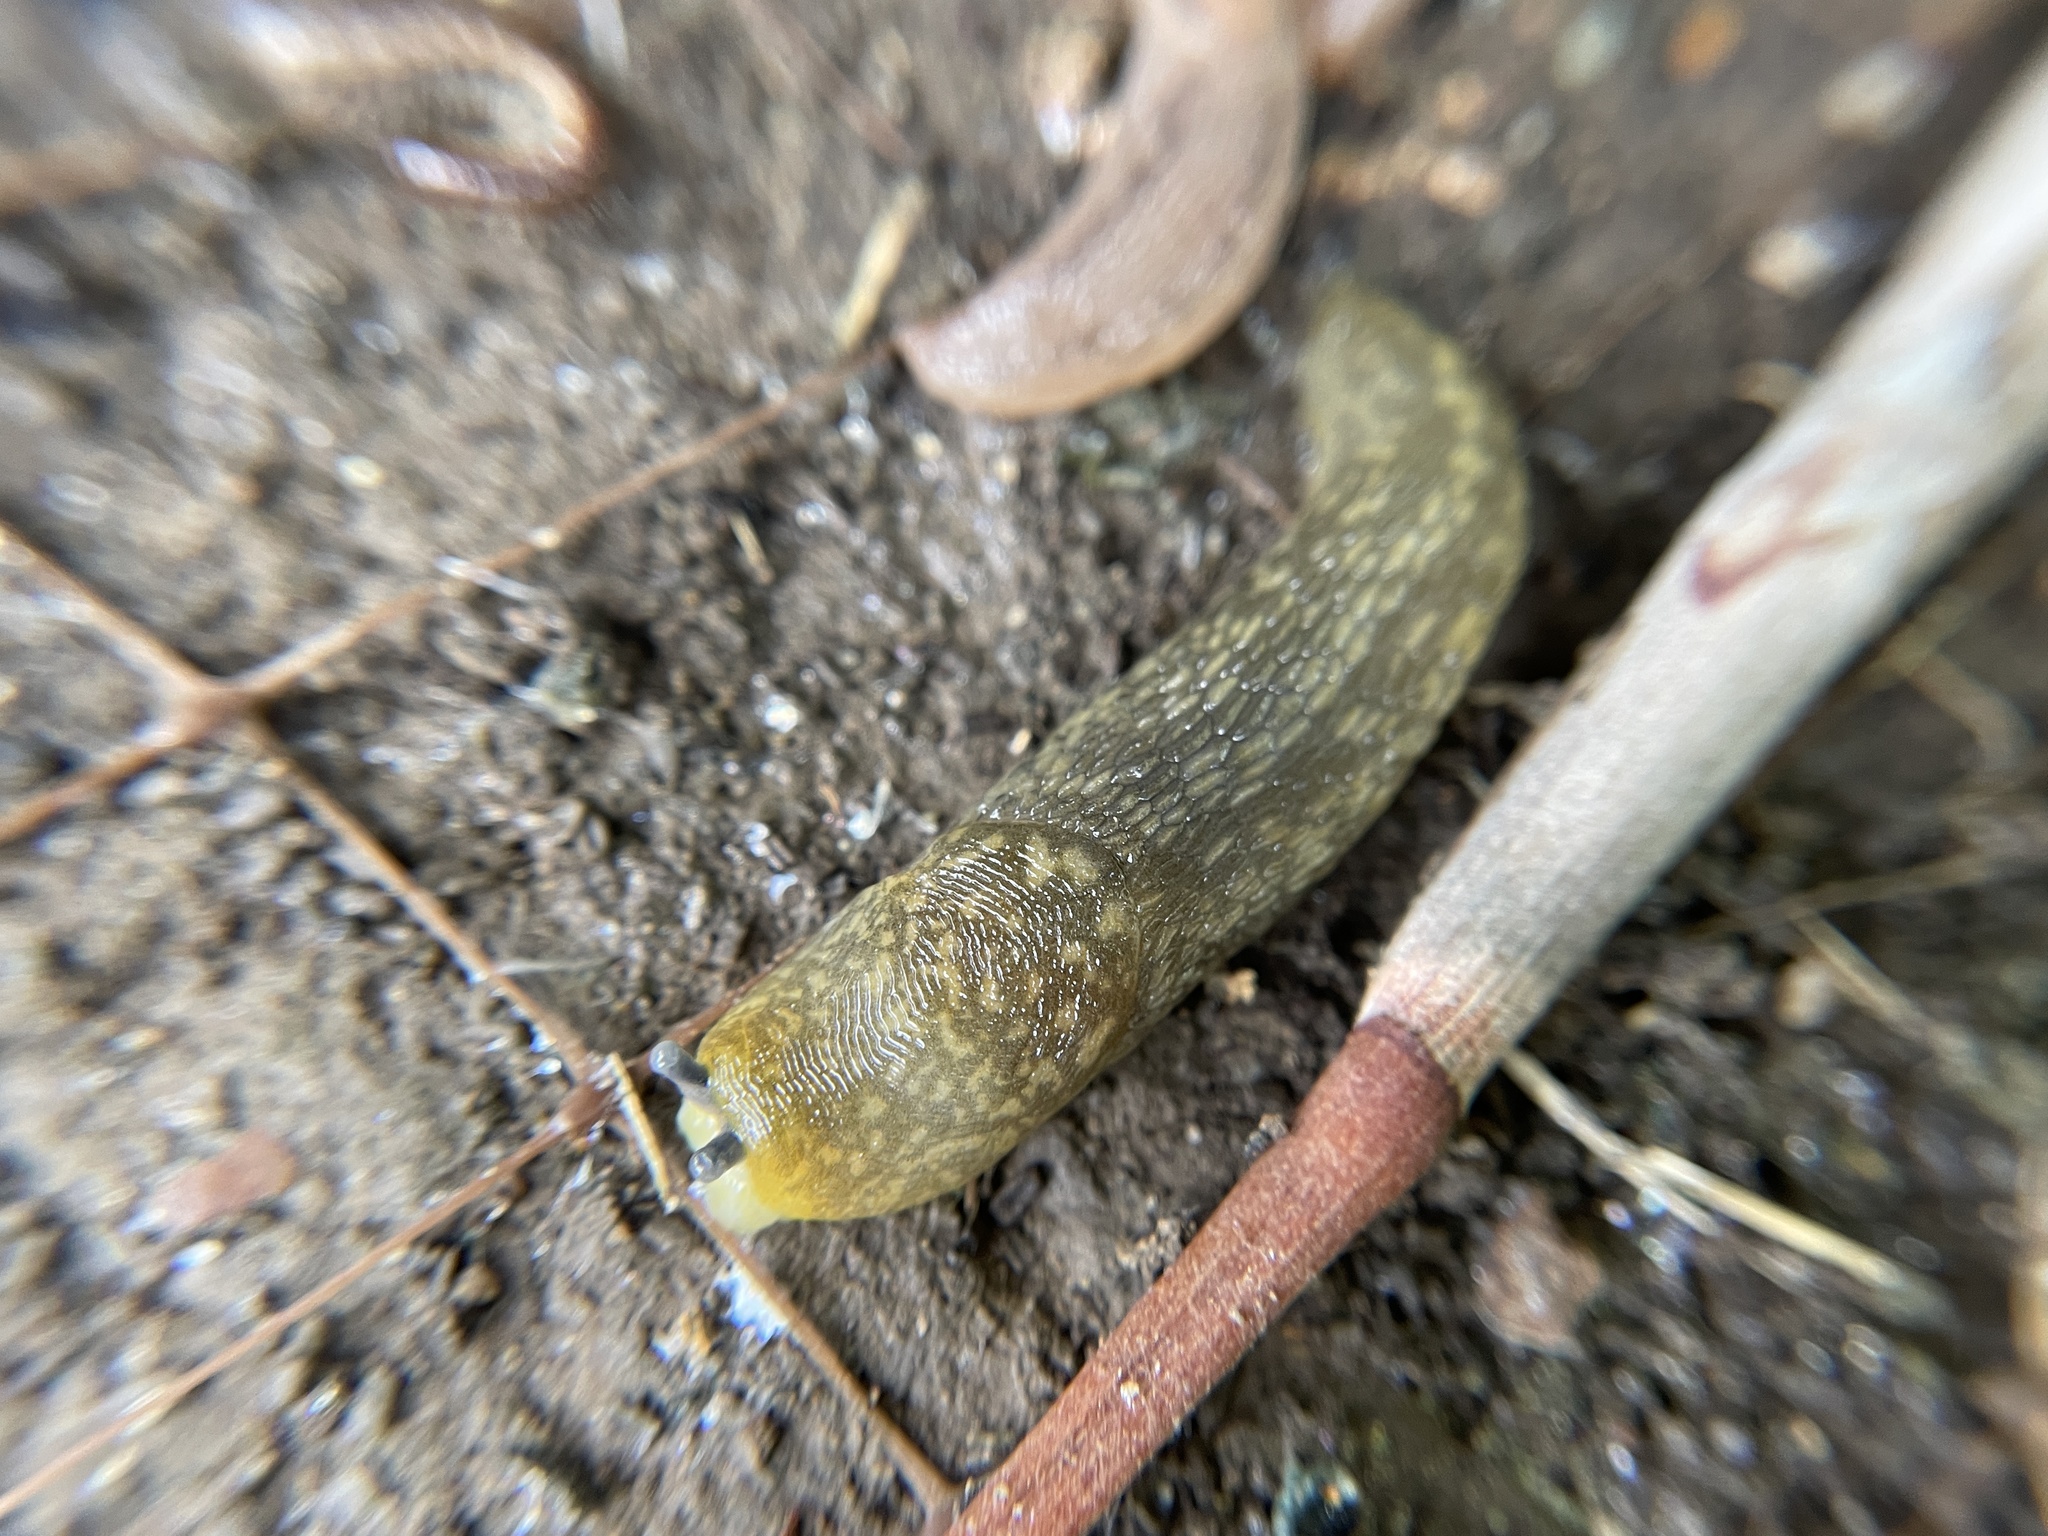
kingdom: Animalia
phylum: Mollusca
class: Gastropoda
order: Stylommatophora
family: Limacidae
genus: Limacus
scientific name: Limacus flavus
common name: Yellow gardenslug
